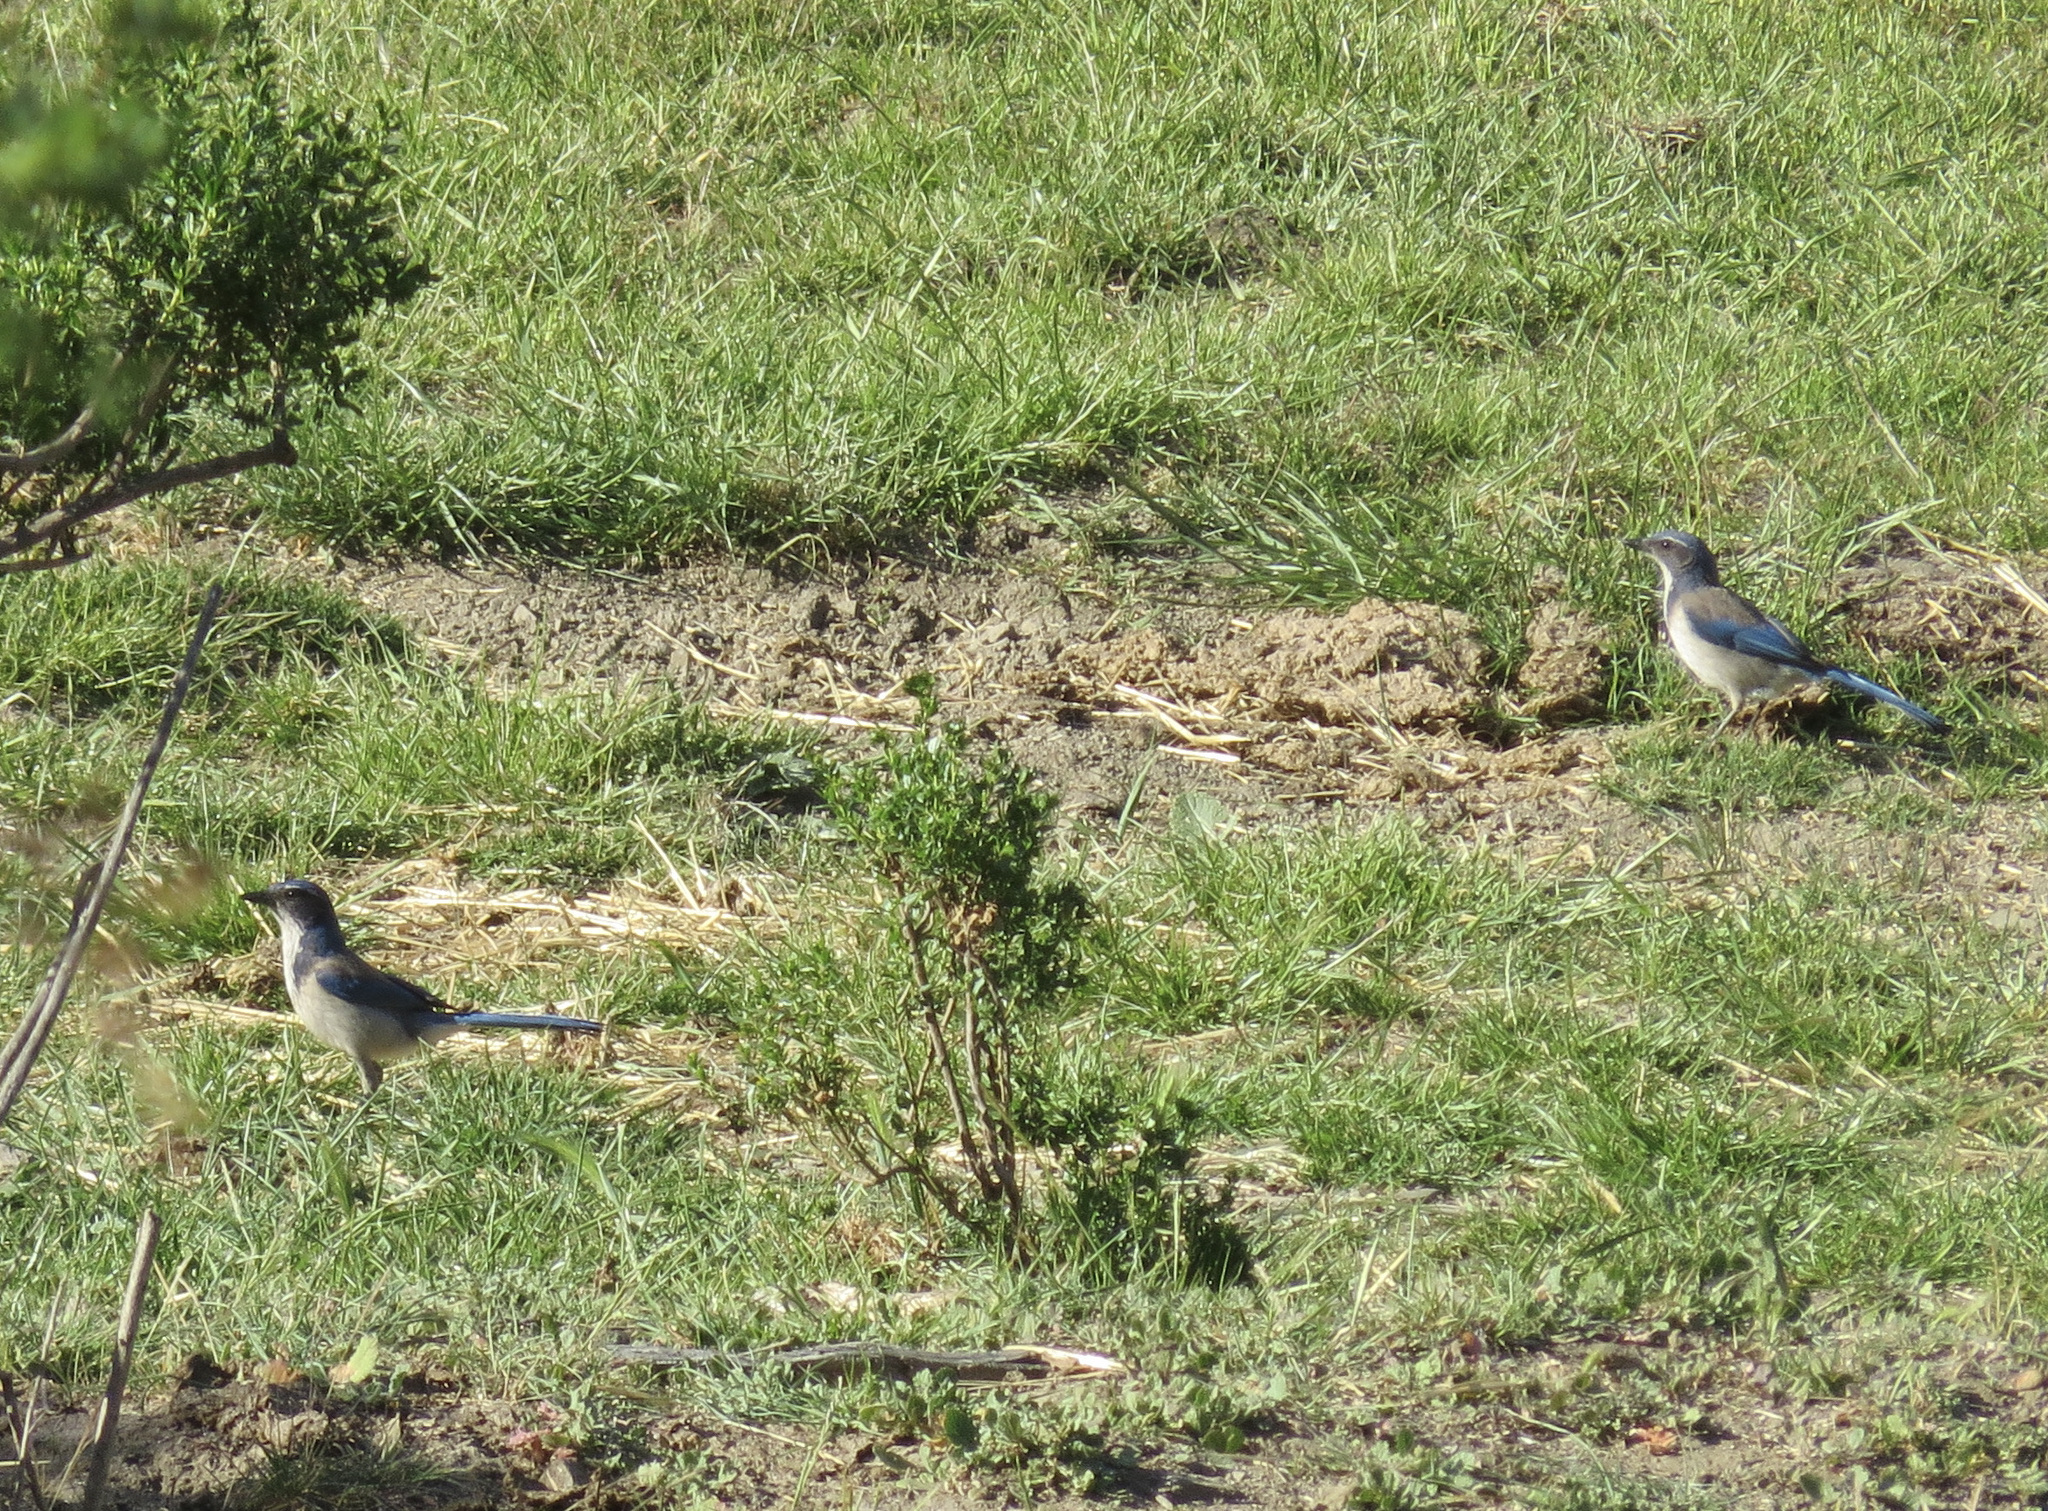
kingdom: Animalia
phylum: Chordata
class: Aves
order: Passeriformes
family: Corvidae
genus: Aphelocoma
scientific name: Aphelocoma californica
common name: California scrub-jay
